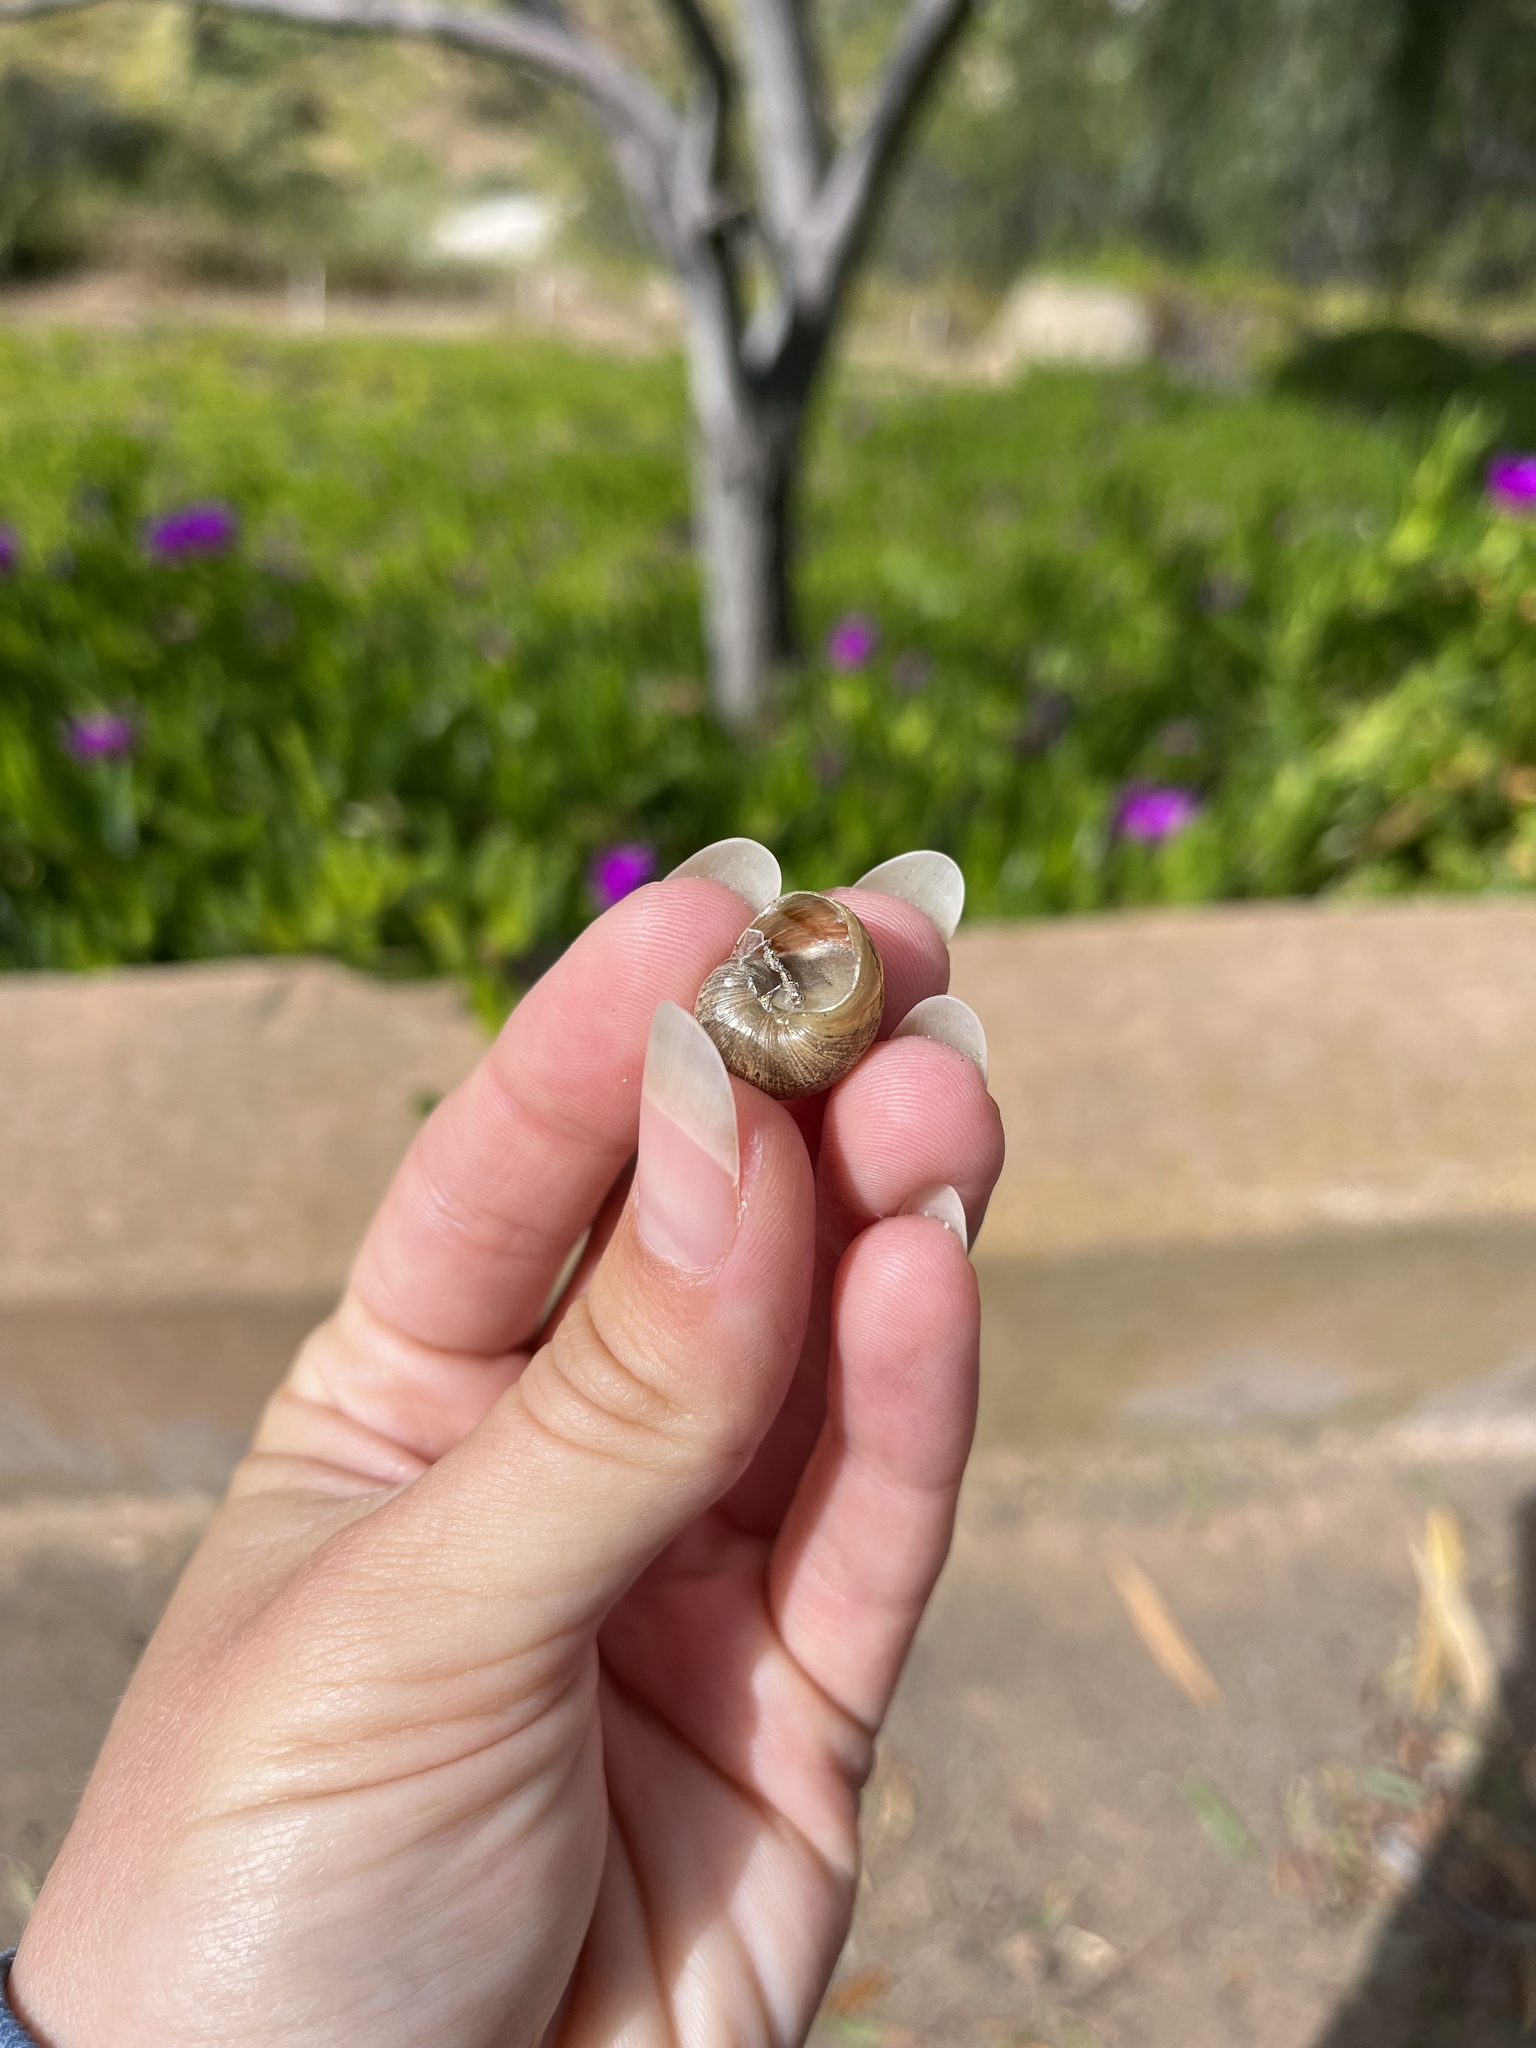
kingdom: Animalia
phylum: Mollusca
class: Gastropoda
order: Stylommatophora
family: Helicidae
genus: Cornu
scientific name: Cornu aspersum
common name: Brown garden snail
